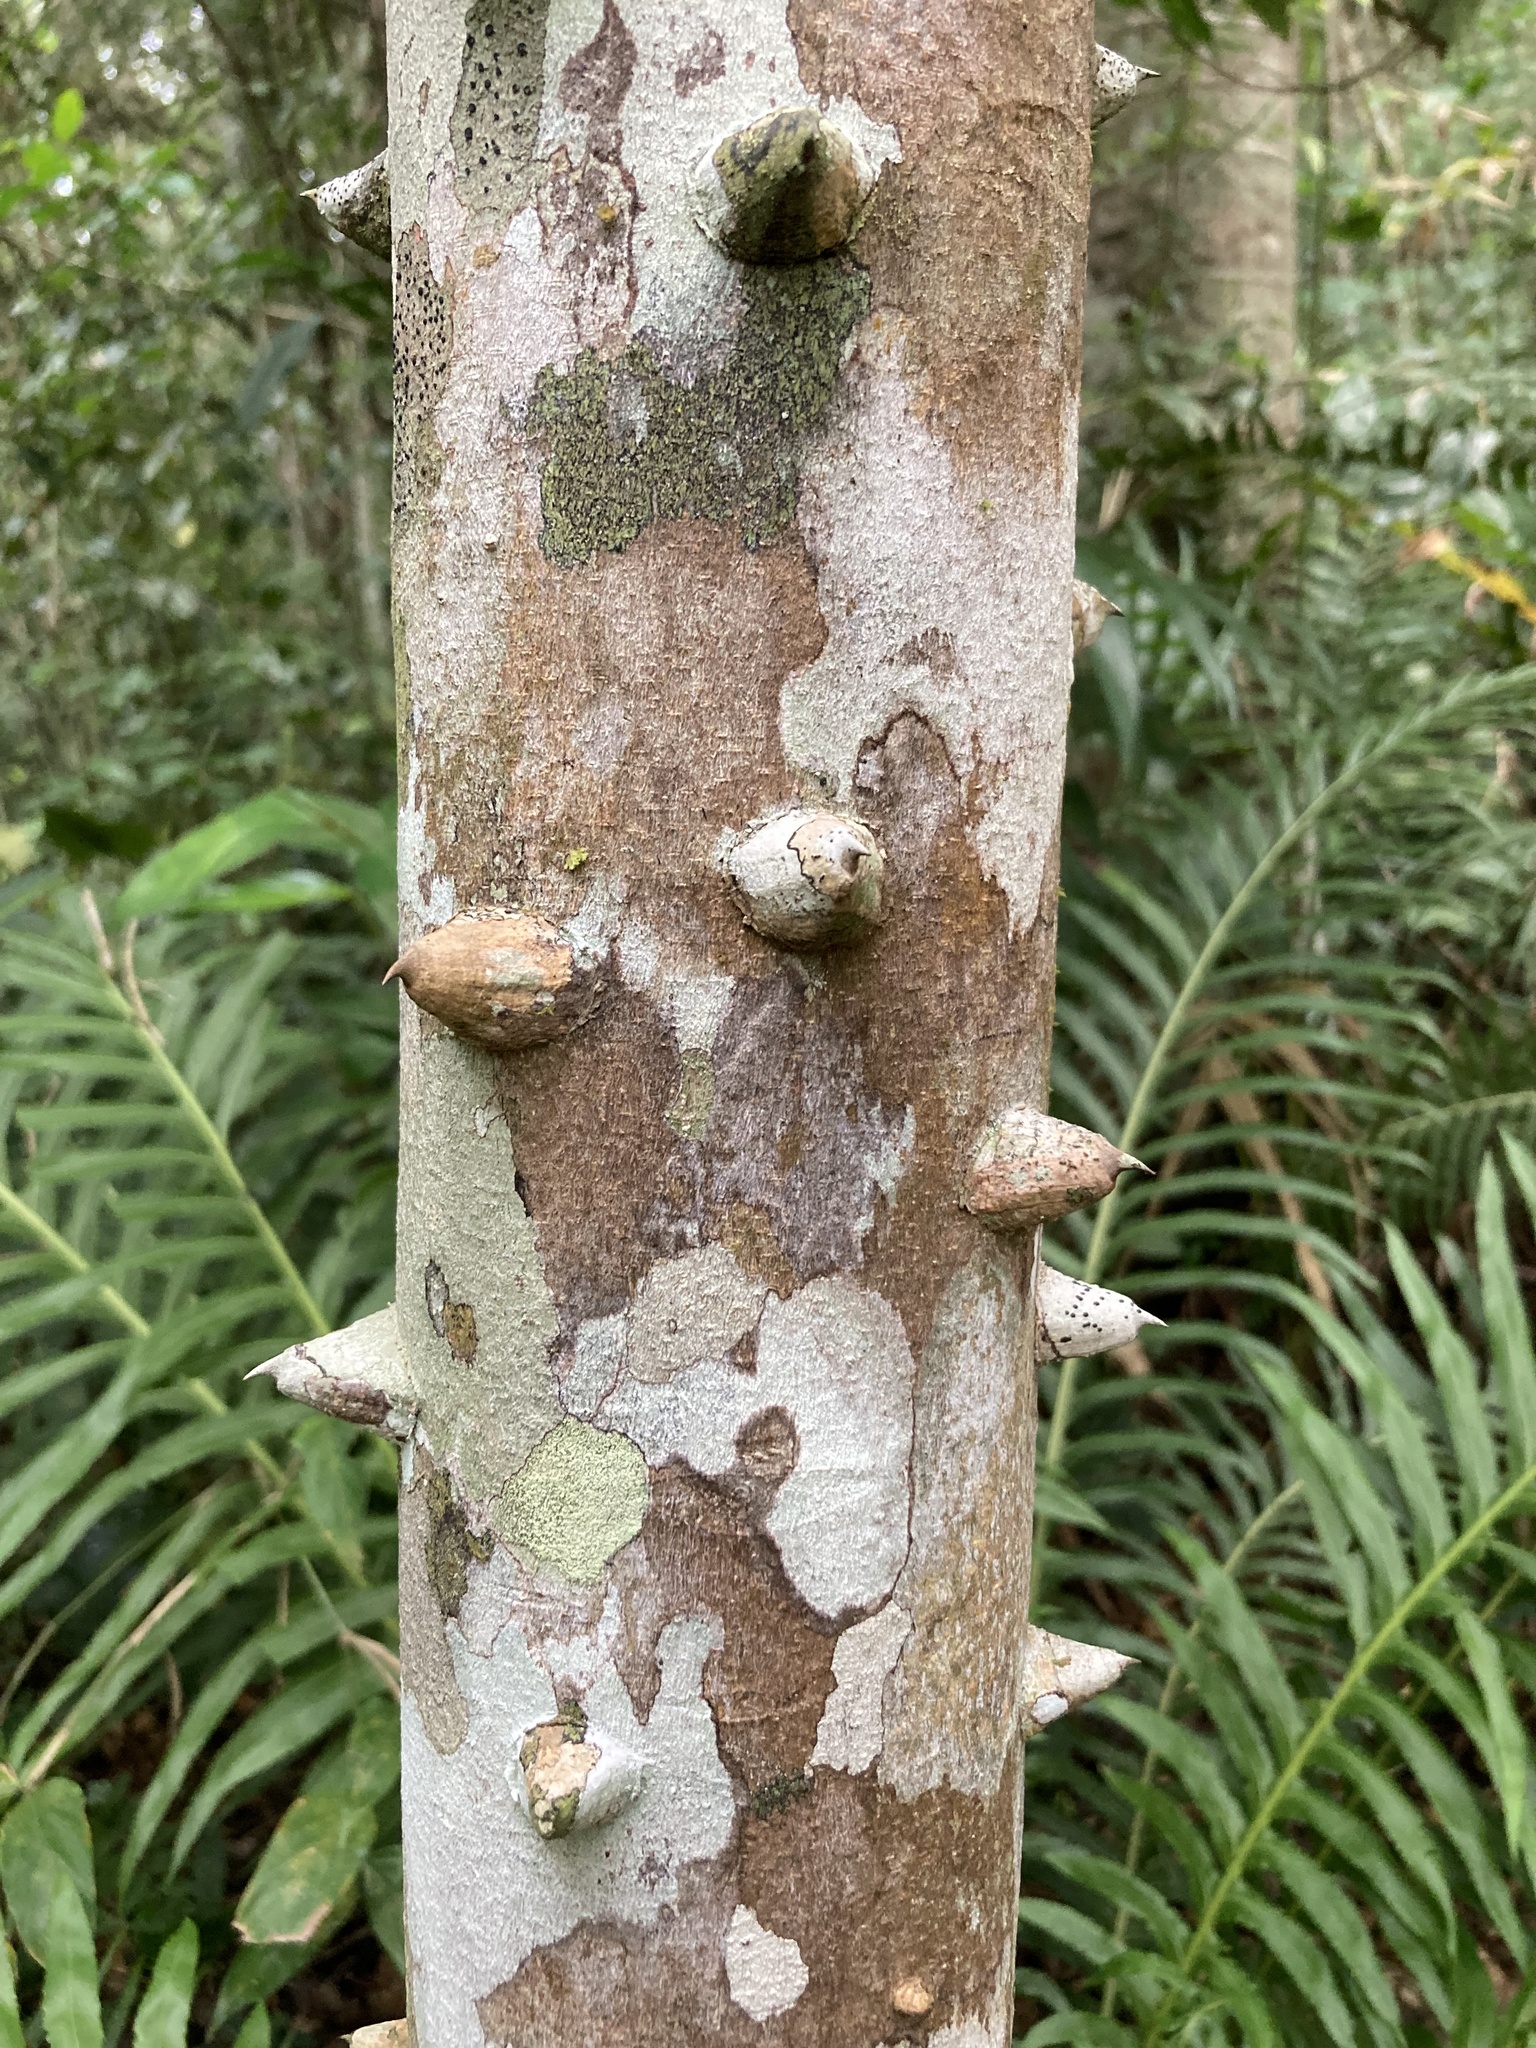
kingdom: Plantae
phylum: Tracheophyta
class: Magnoliopsida
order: Sapindales
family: Rutaceae
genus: Zanthoxylum
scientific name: Zanthoxylum rhoifolium
